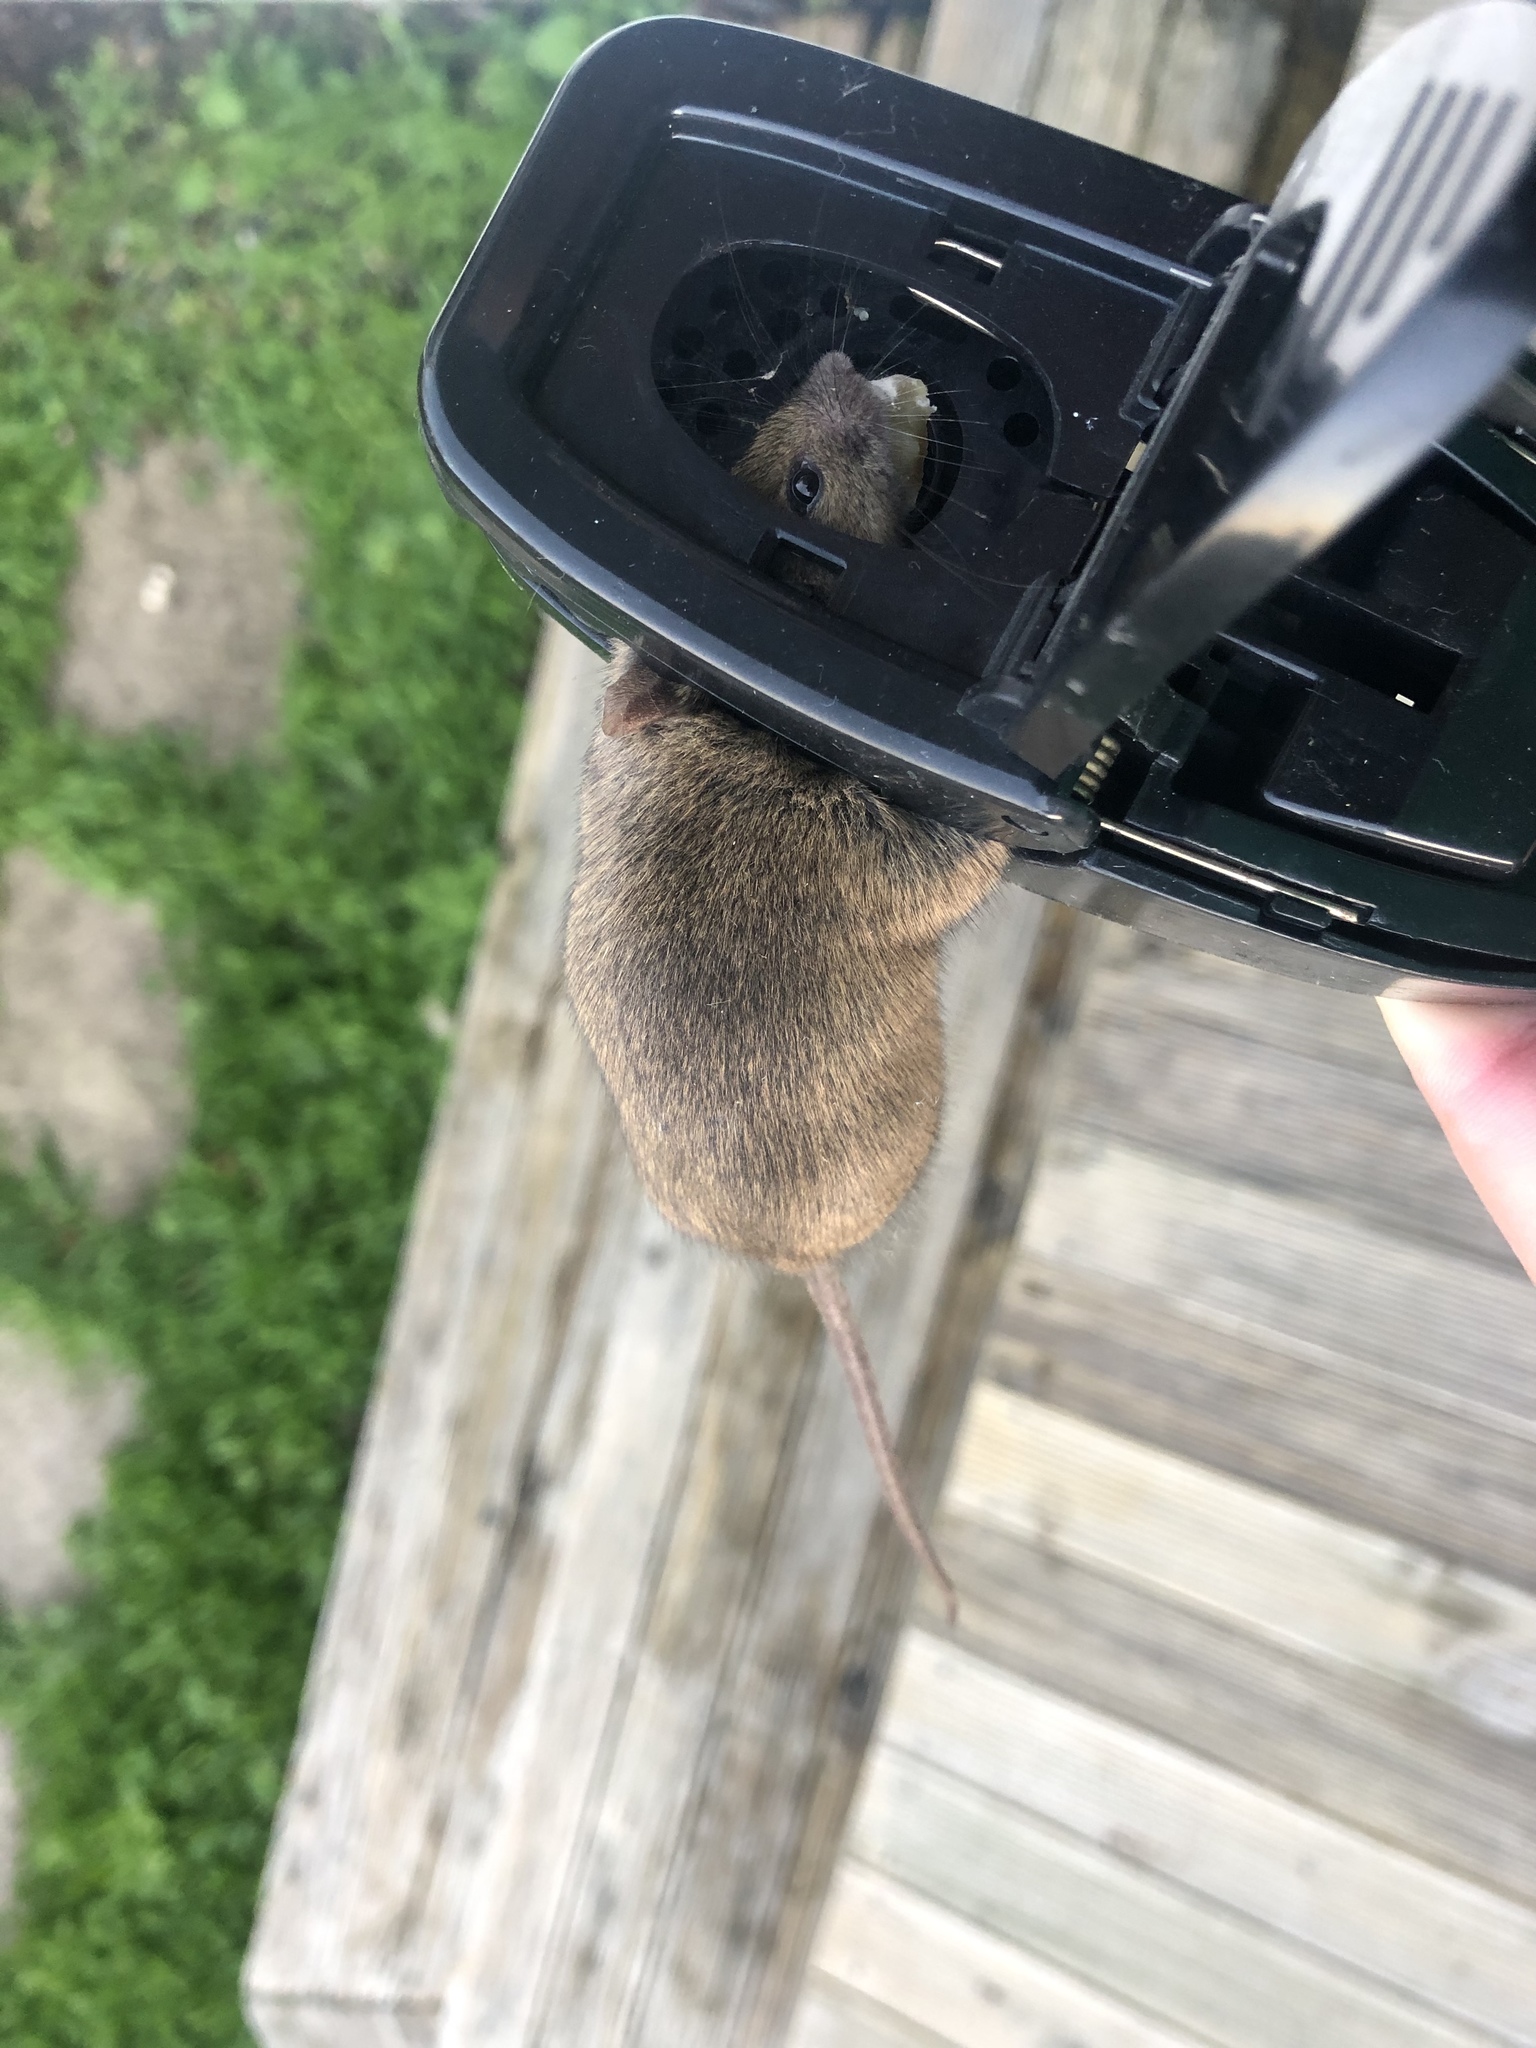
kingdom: Animalia
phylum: Chordata
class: Mammalia
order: Rodentia
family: Muridae
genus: Mus
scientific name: Mus musculus
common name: House mouse
